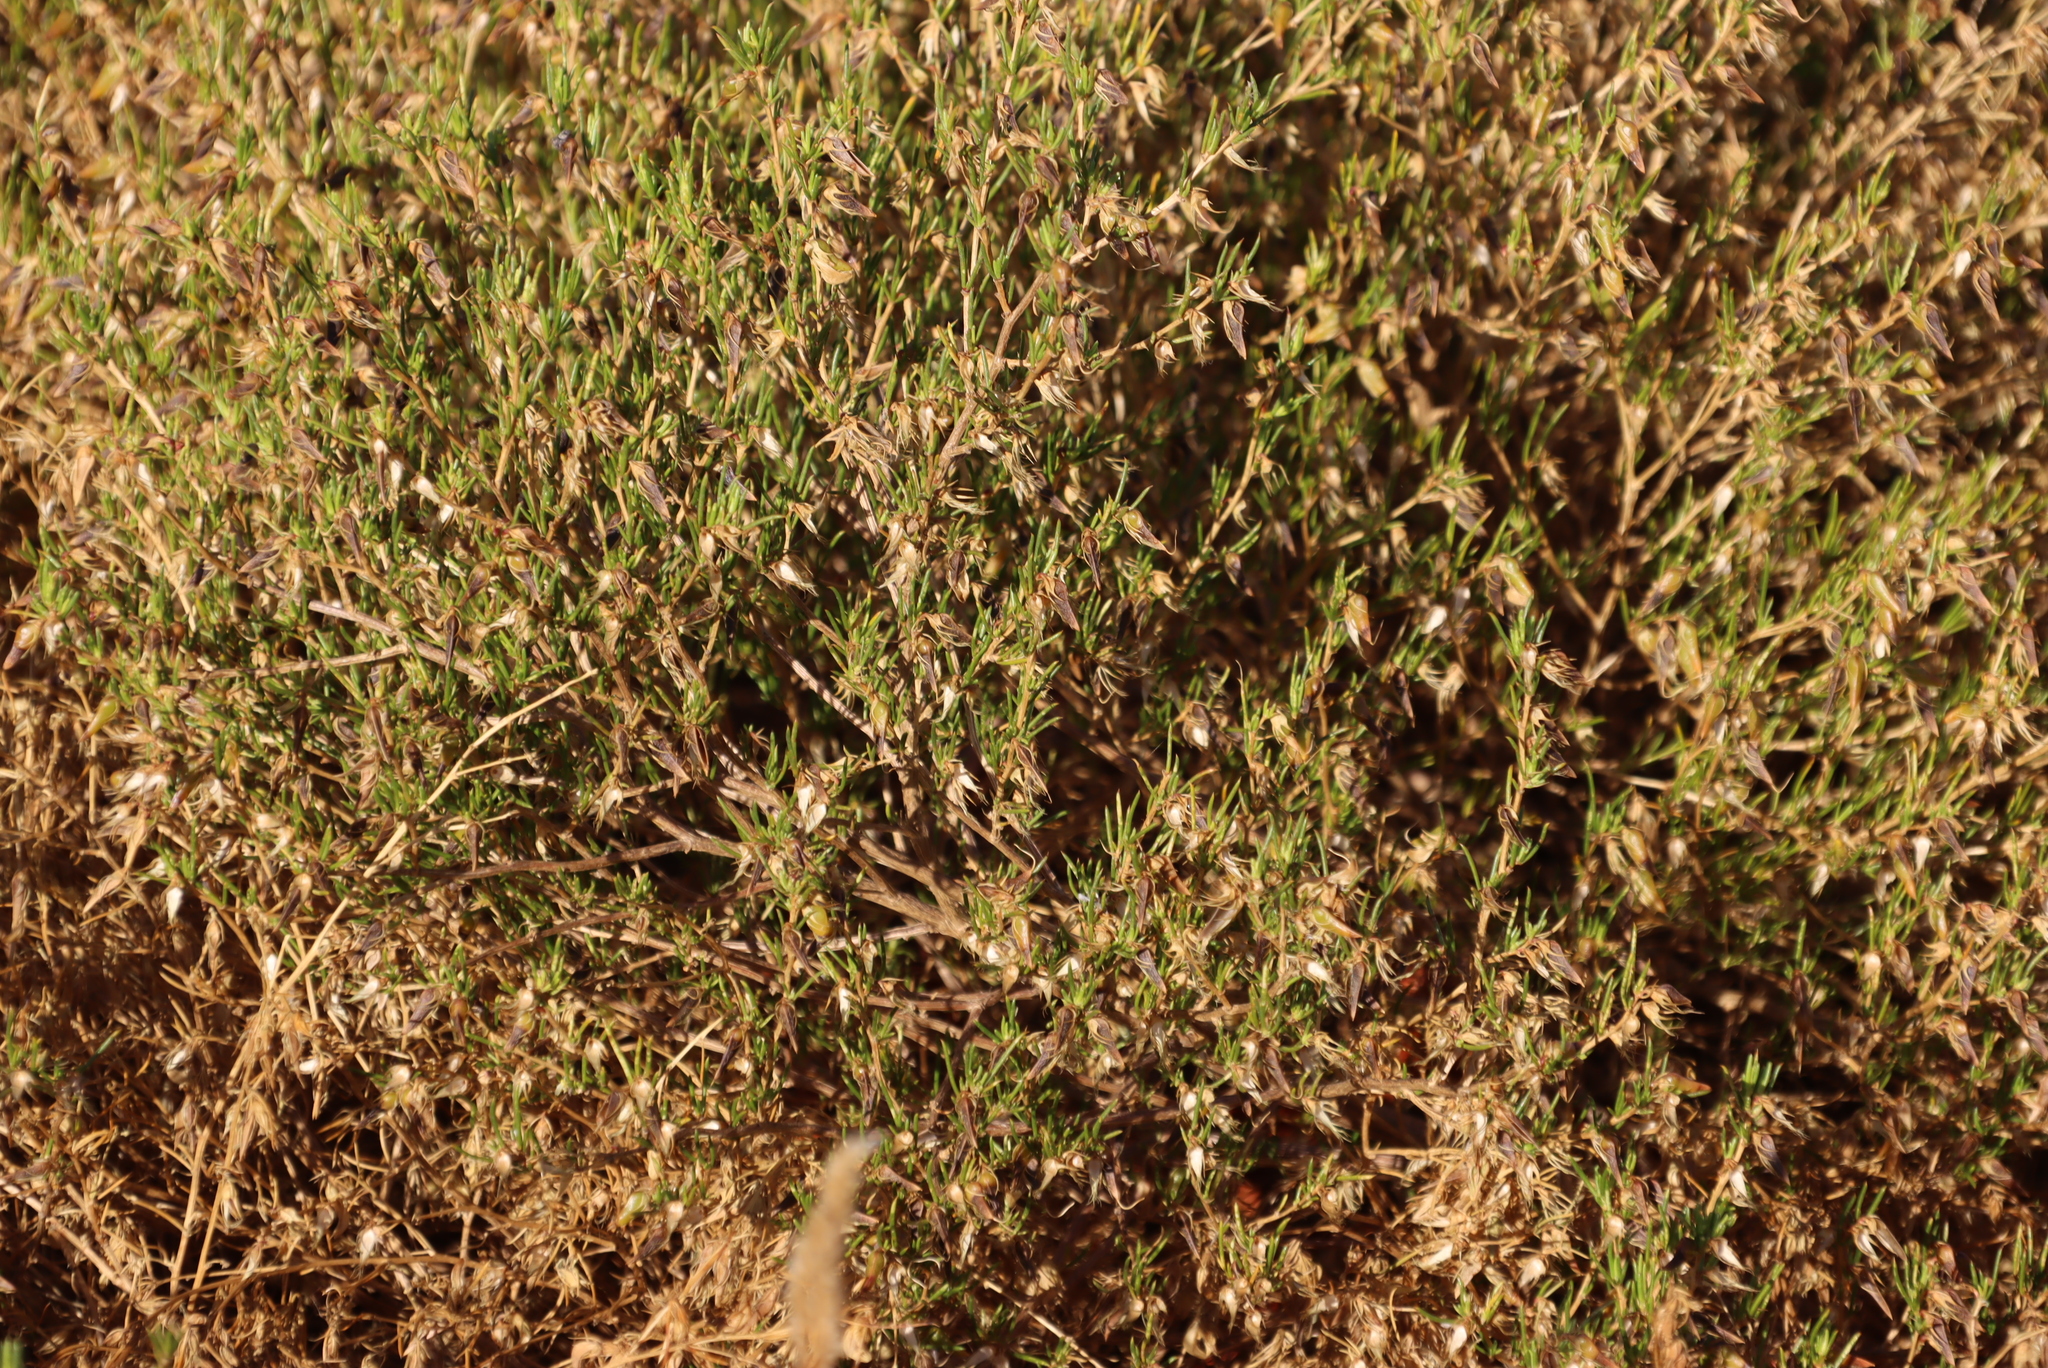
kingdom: Plantae
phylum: Tracheophyta
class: Magnoliopsida
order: Asterales
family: Asteraceae
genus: Myrovernix
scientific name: Myrovernix scaber
